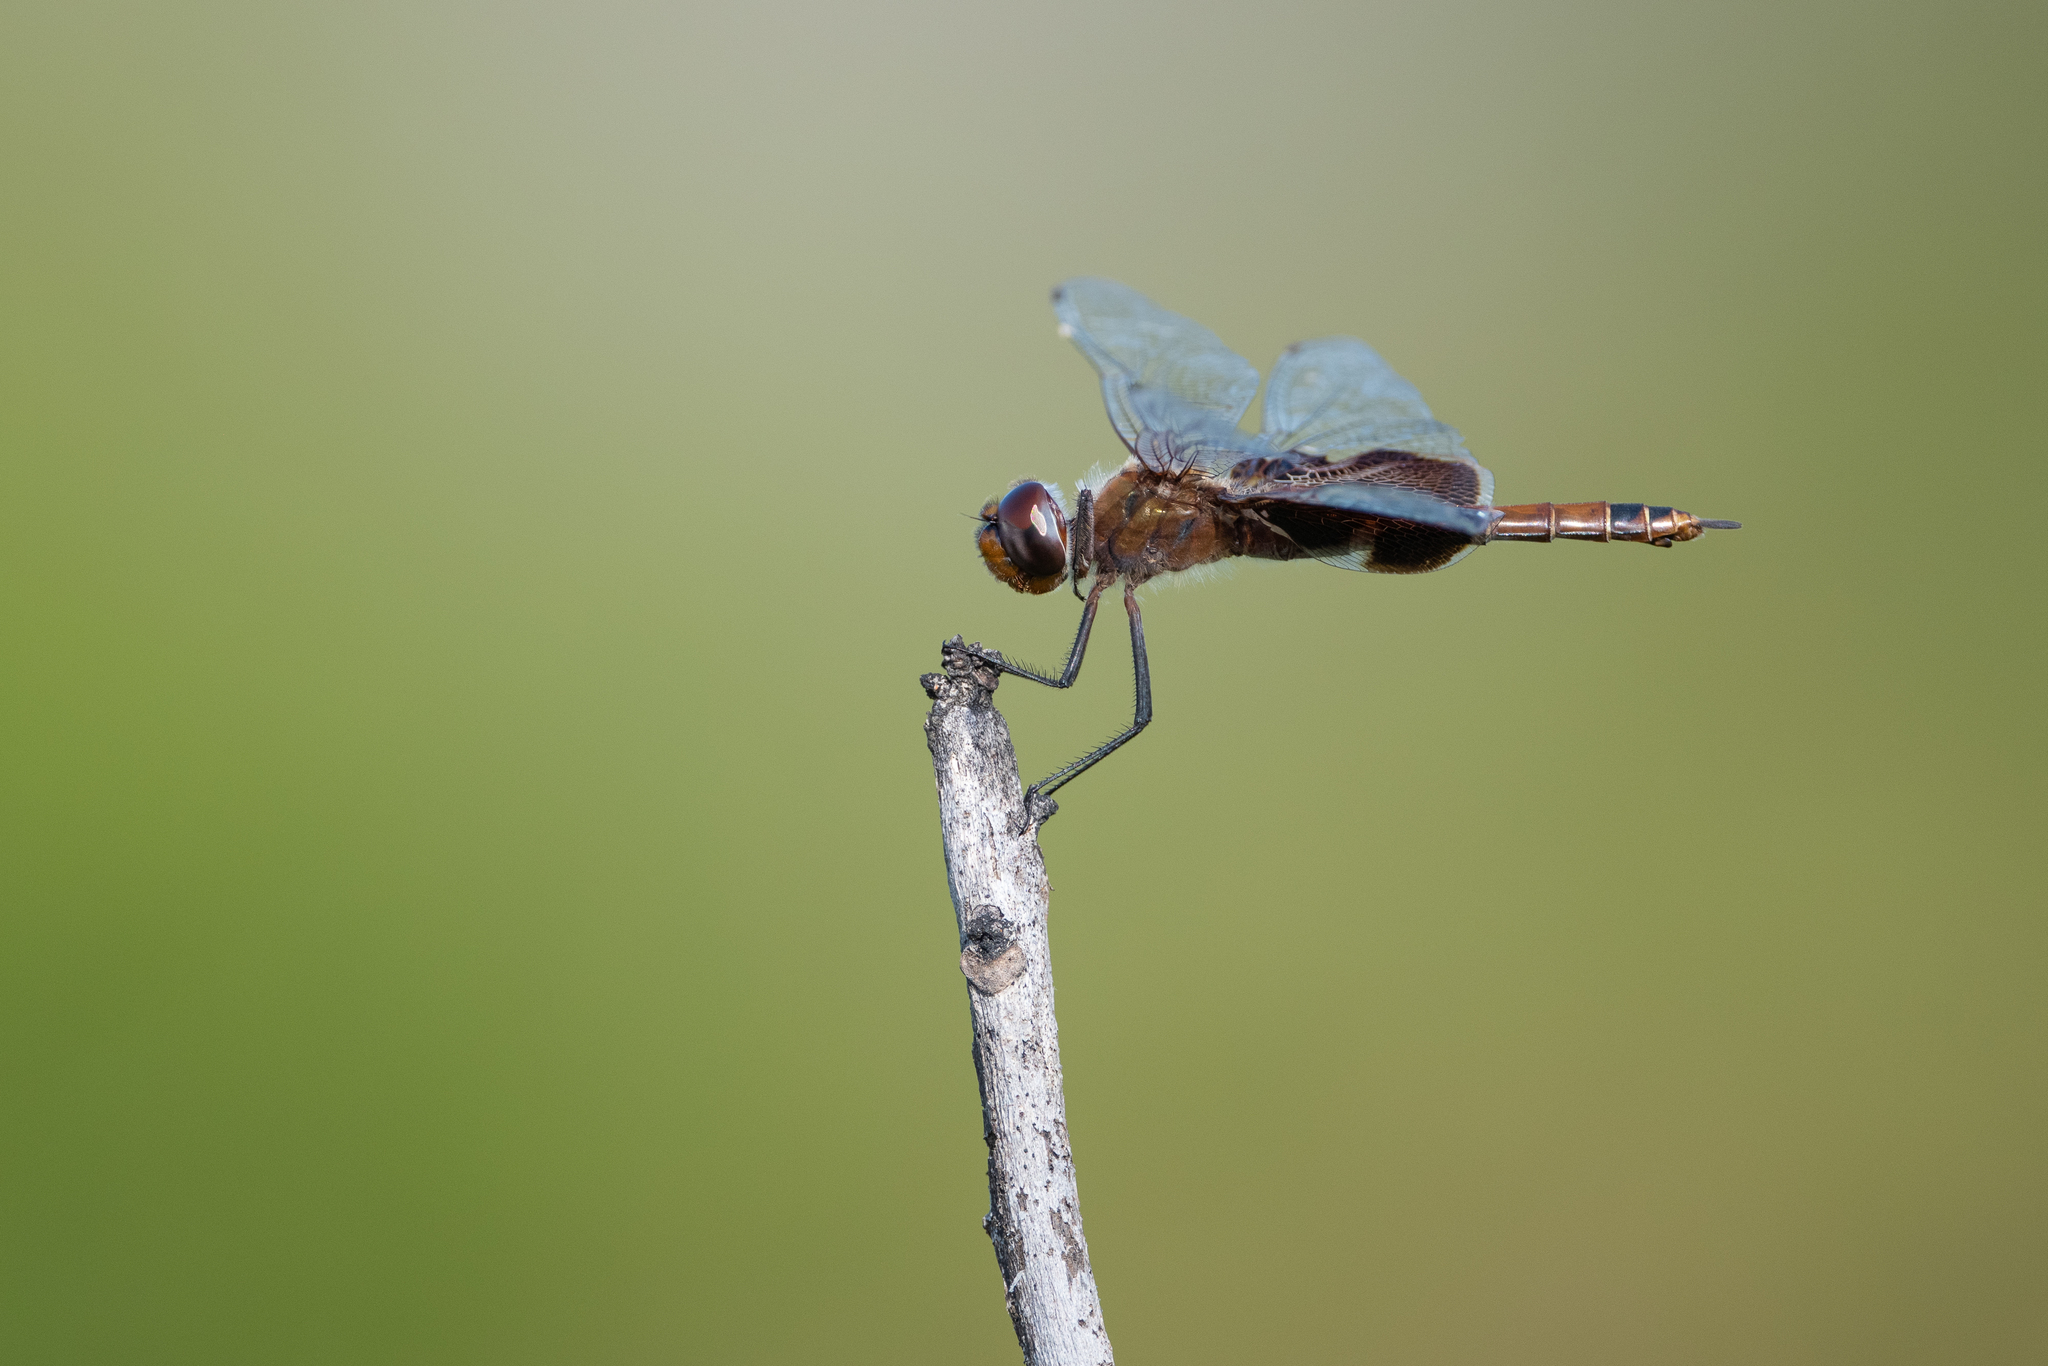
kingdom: Animalia
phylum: Arthropoda
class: Insecta
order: Odonata
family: Libellulidae
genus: Tramea
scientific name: Tramea carolina
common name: Carolina saddlebags
